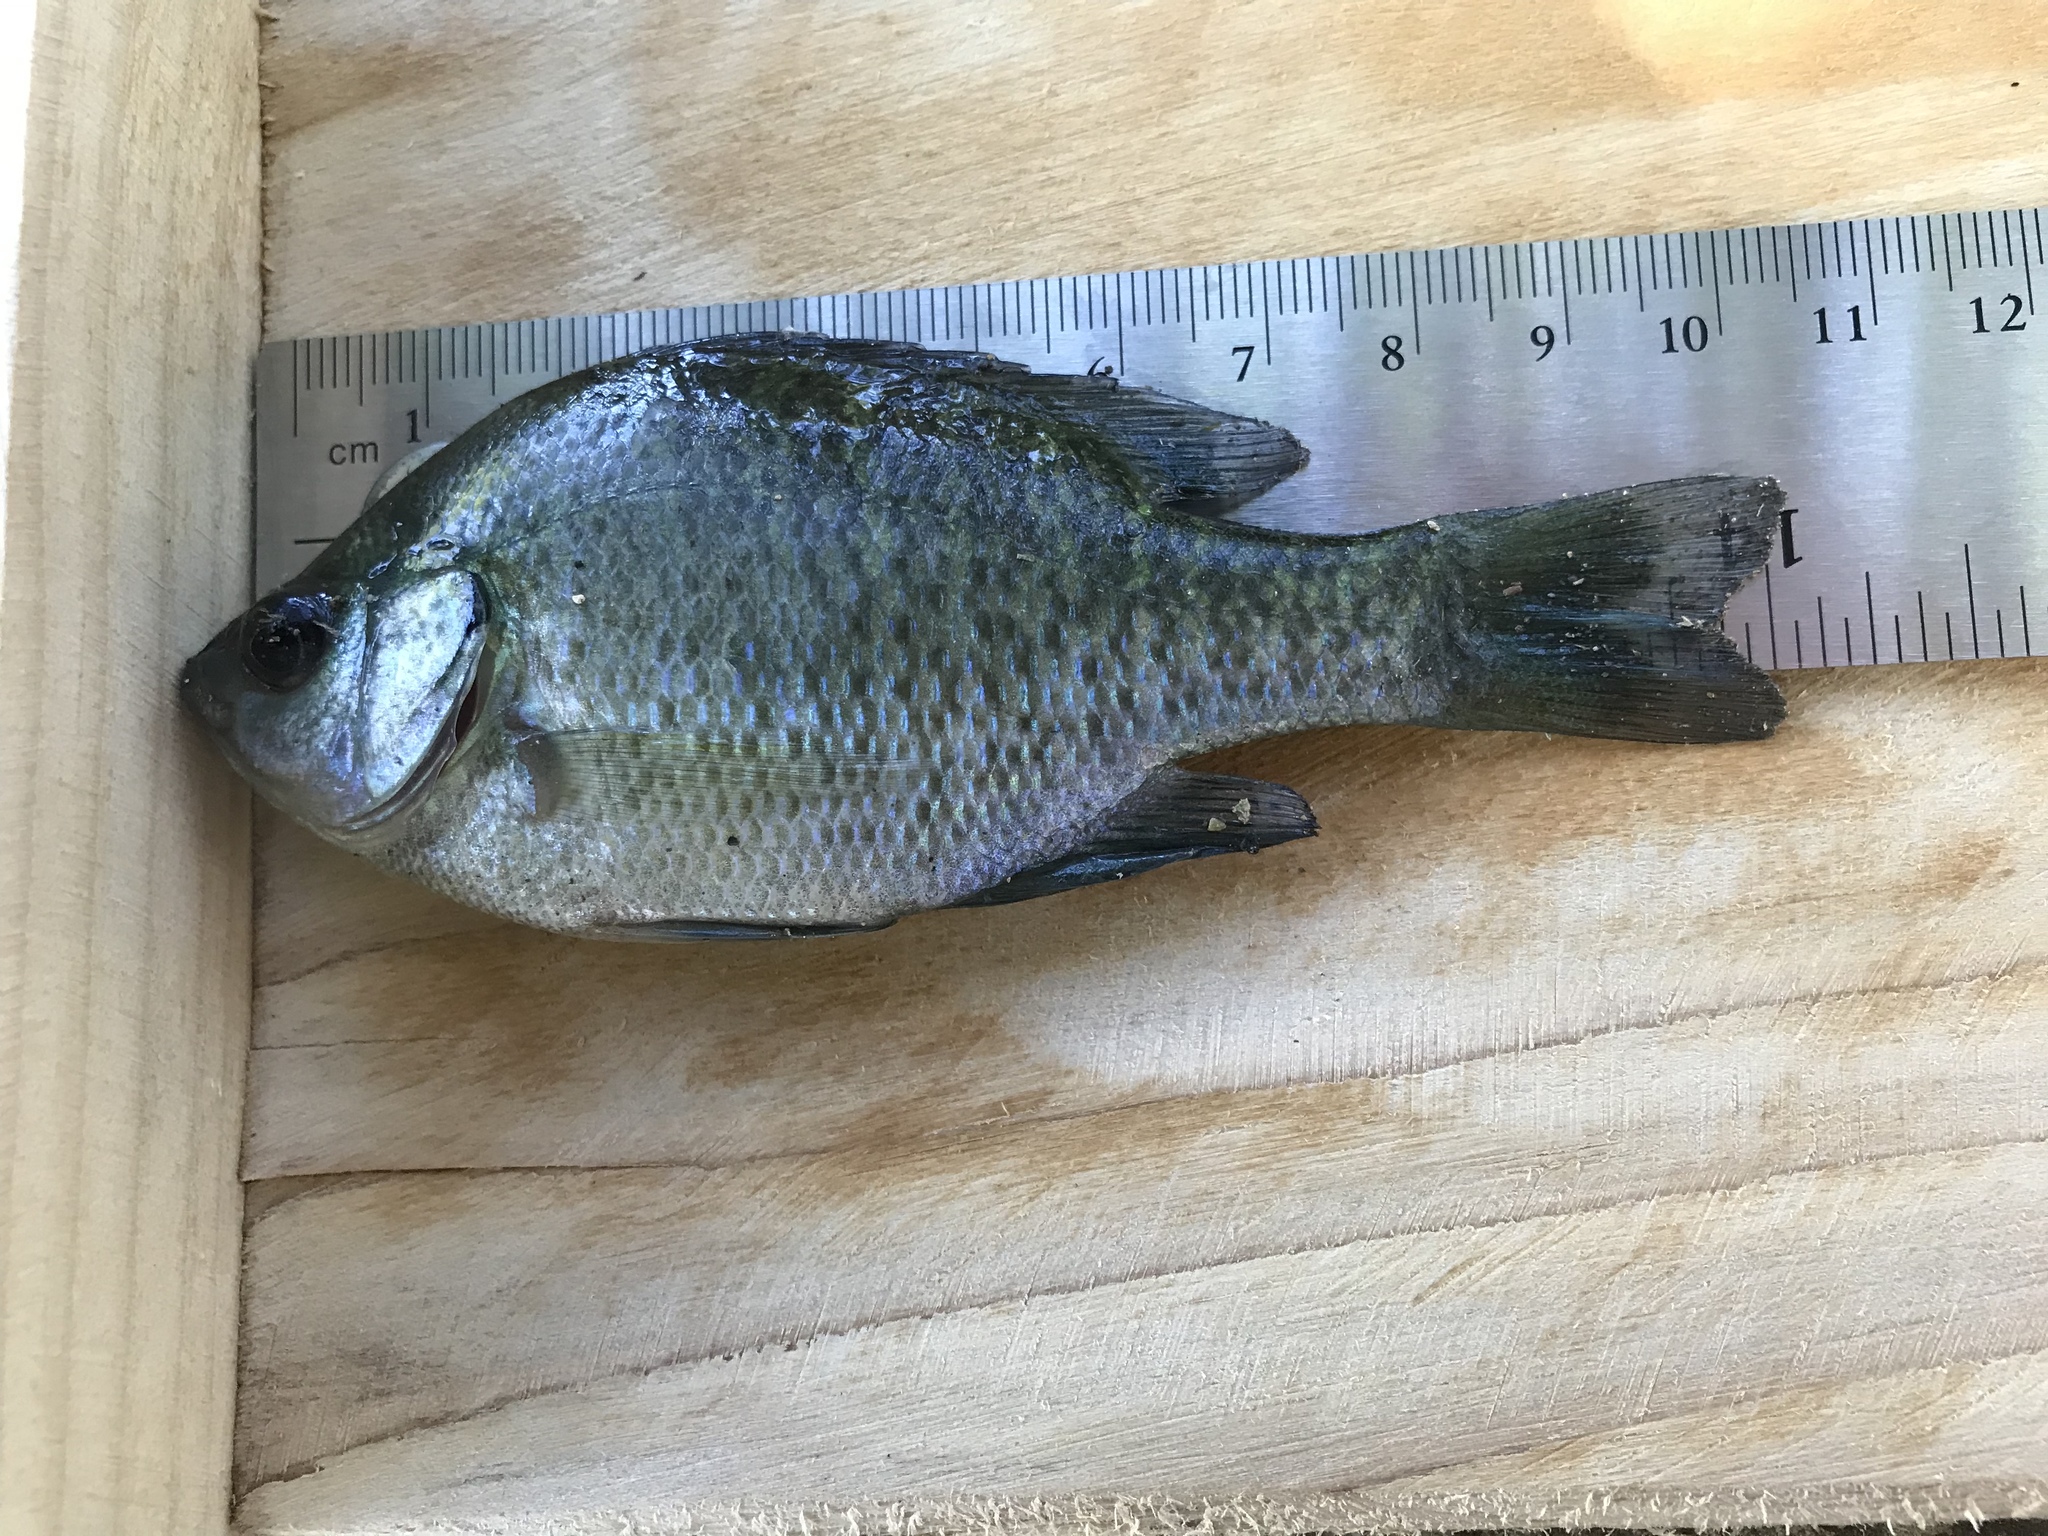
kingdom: Animalia
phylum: Chordata
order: Perciformes
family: Centrarchidae
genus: Lepomis
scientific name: Lepomis macrochirus
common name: Bluegill
